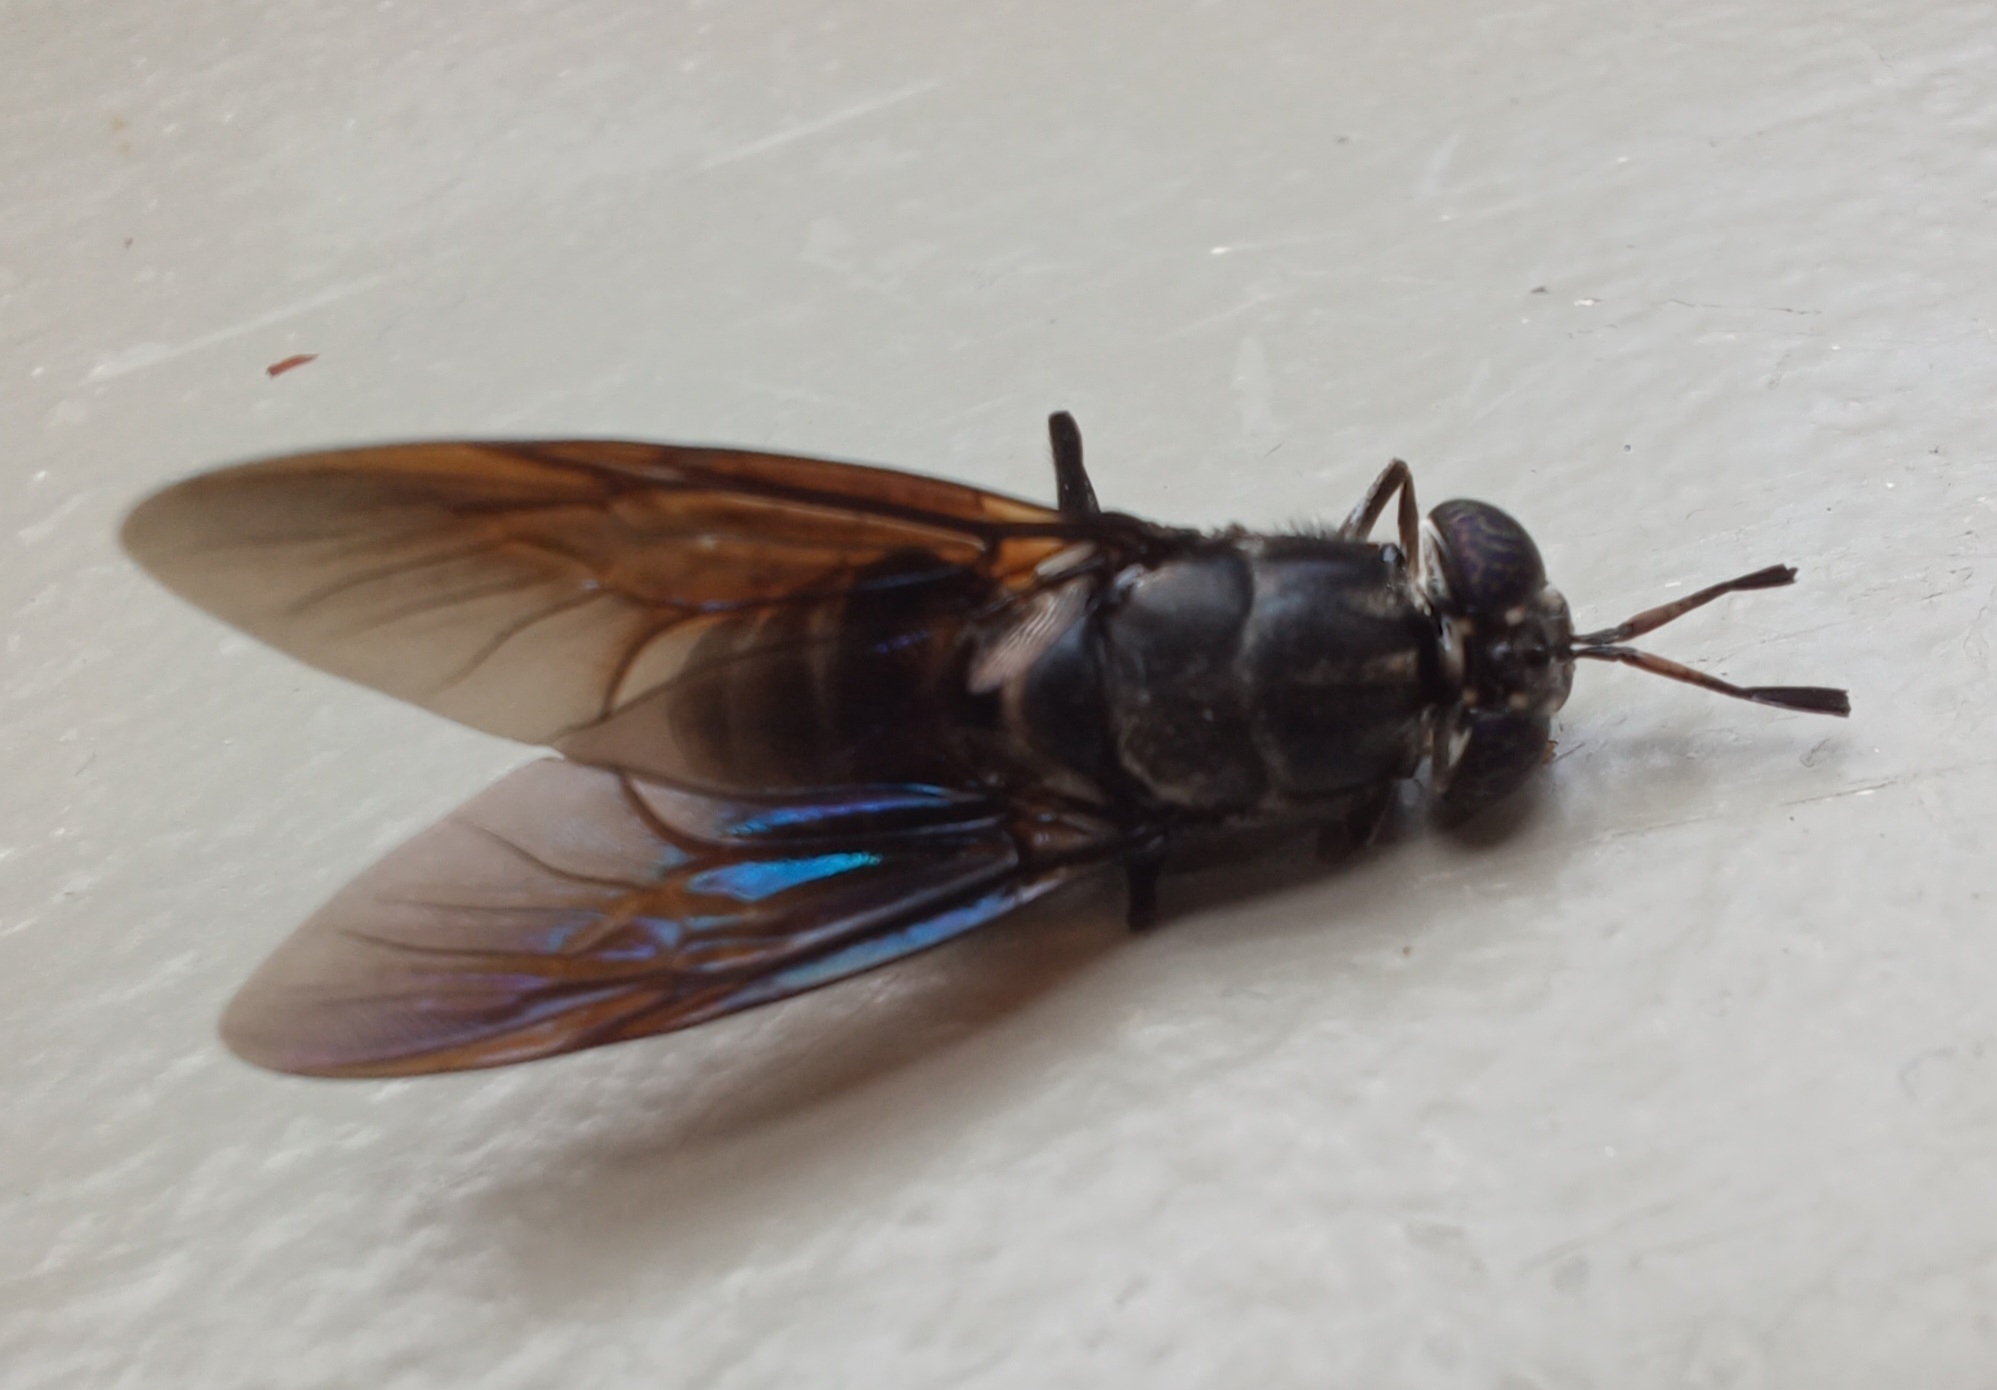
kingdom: Animalia
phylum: Arthropoda
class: Insecta
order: Diptera
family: Stratiomyidae
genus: Hermetia
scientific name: Hermetia illucens
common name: Black soldier fly
